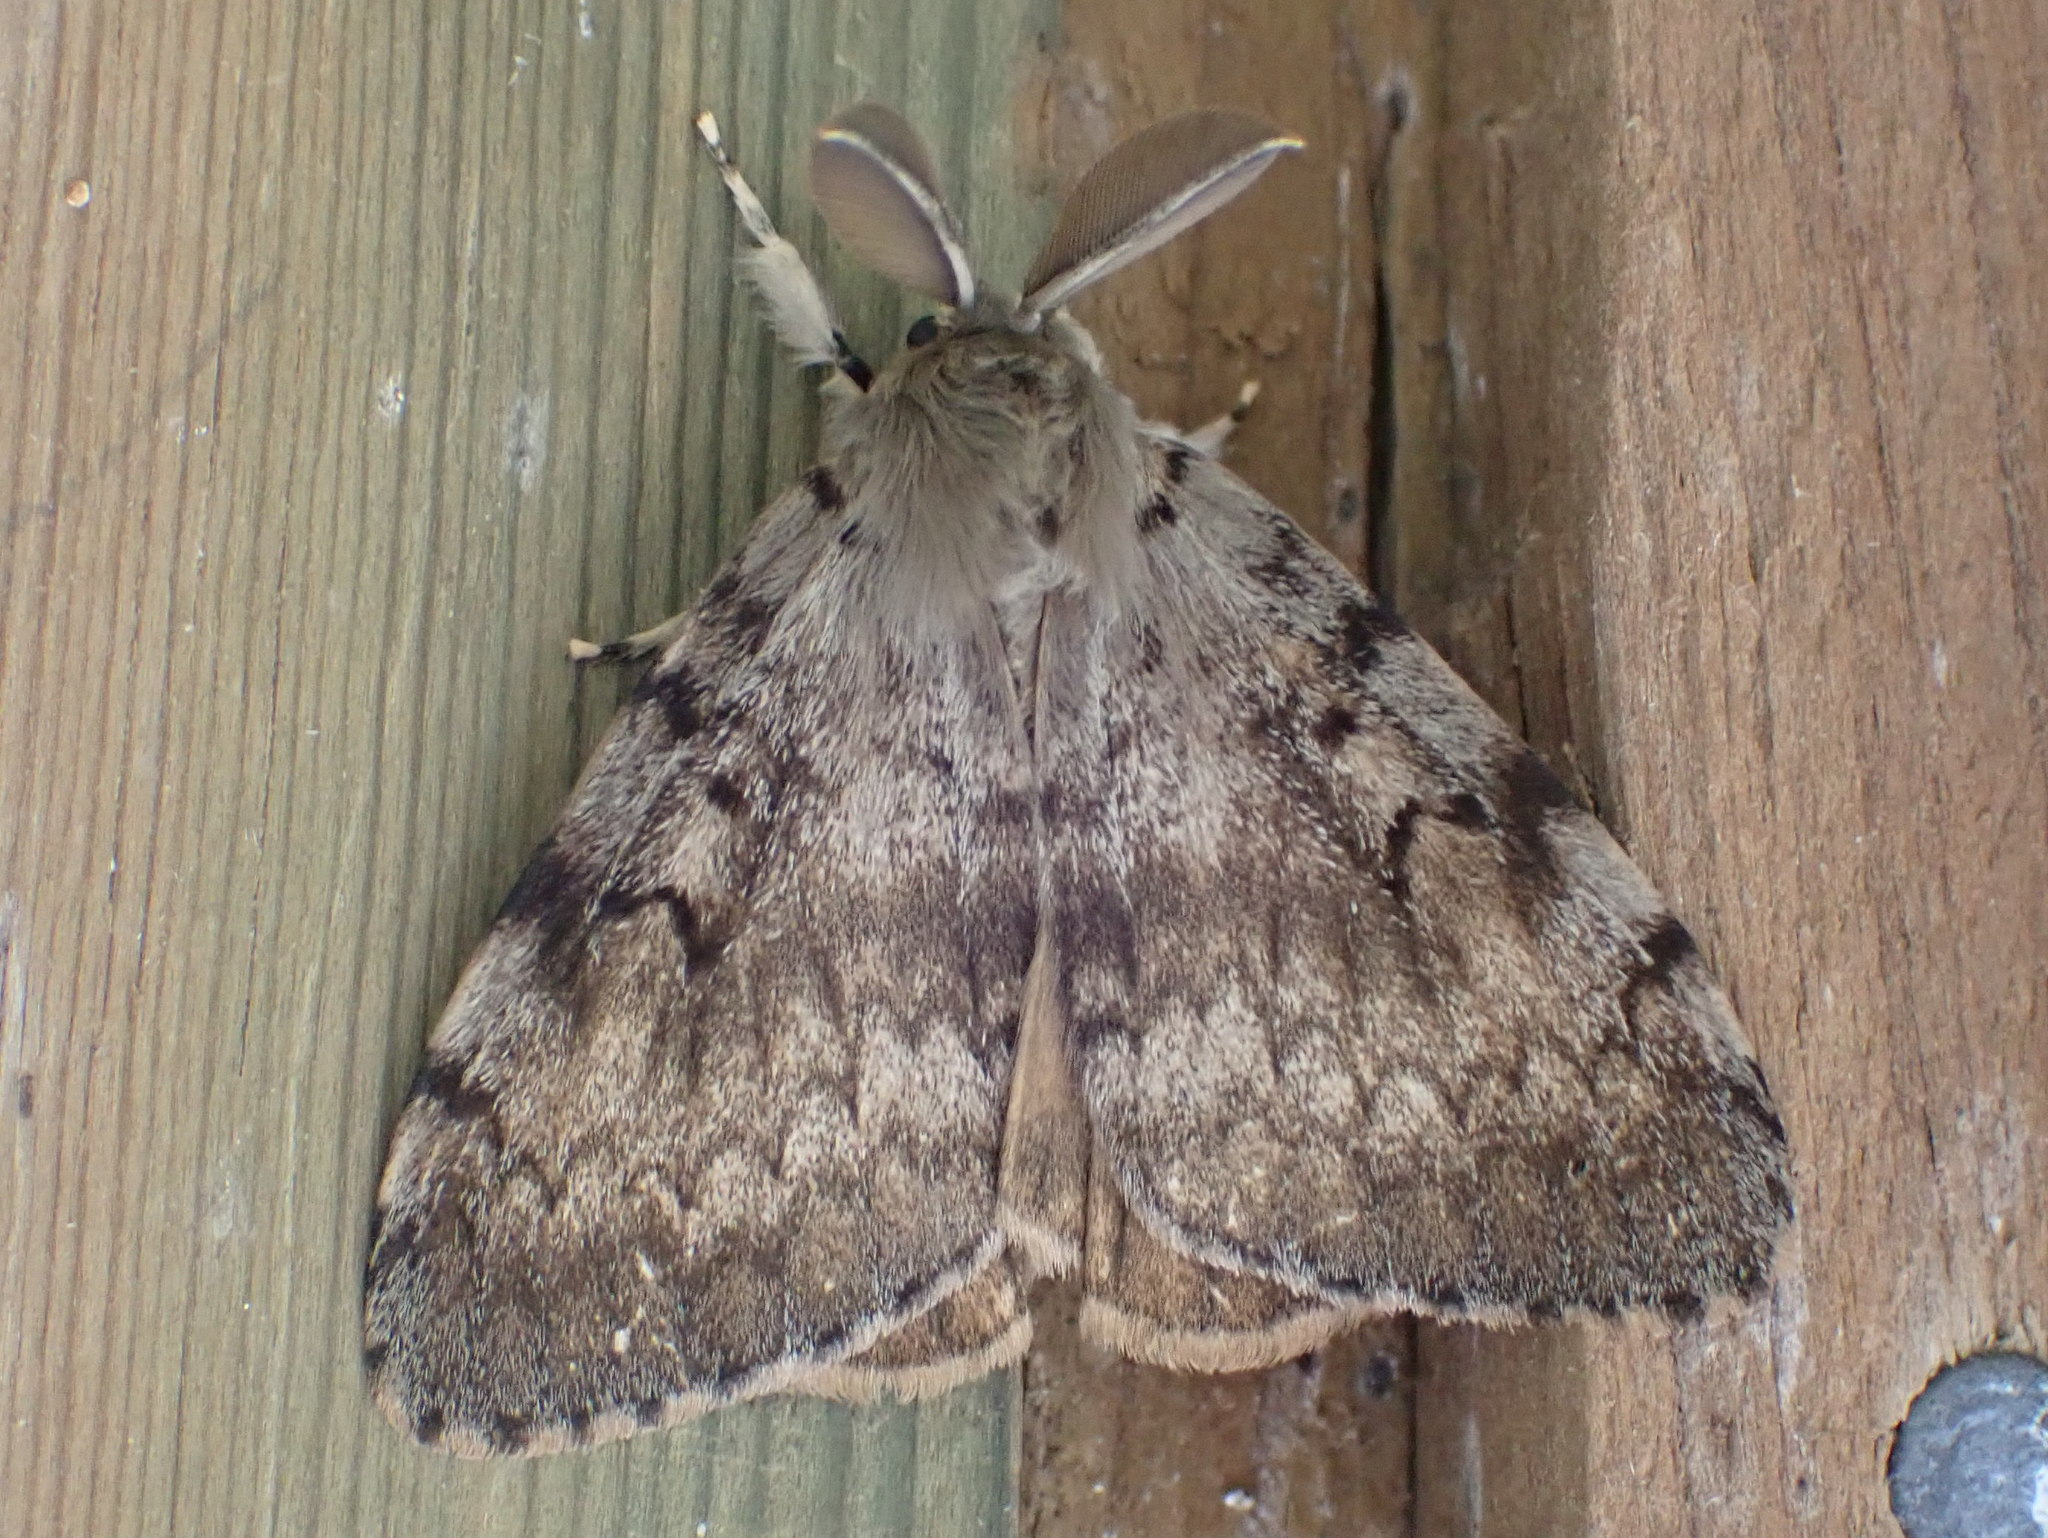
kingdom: Animalia
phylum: Arthropoda
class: Insecta
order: Lepidoptera
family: Erebidae
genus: Lymantria
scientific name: Lymantria dispar
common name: Gypsy moth
